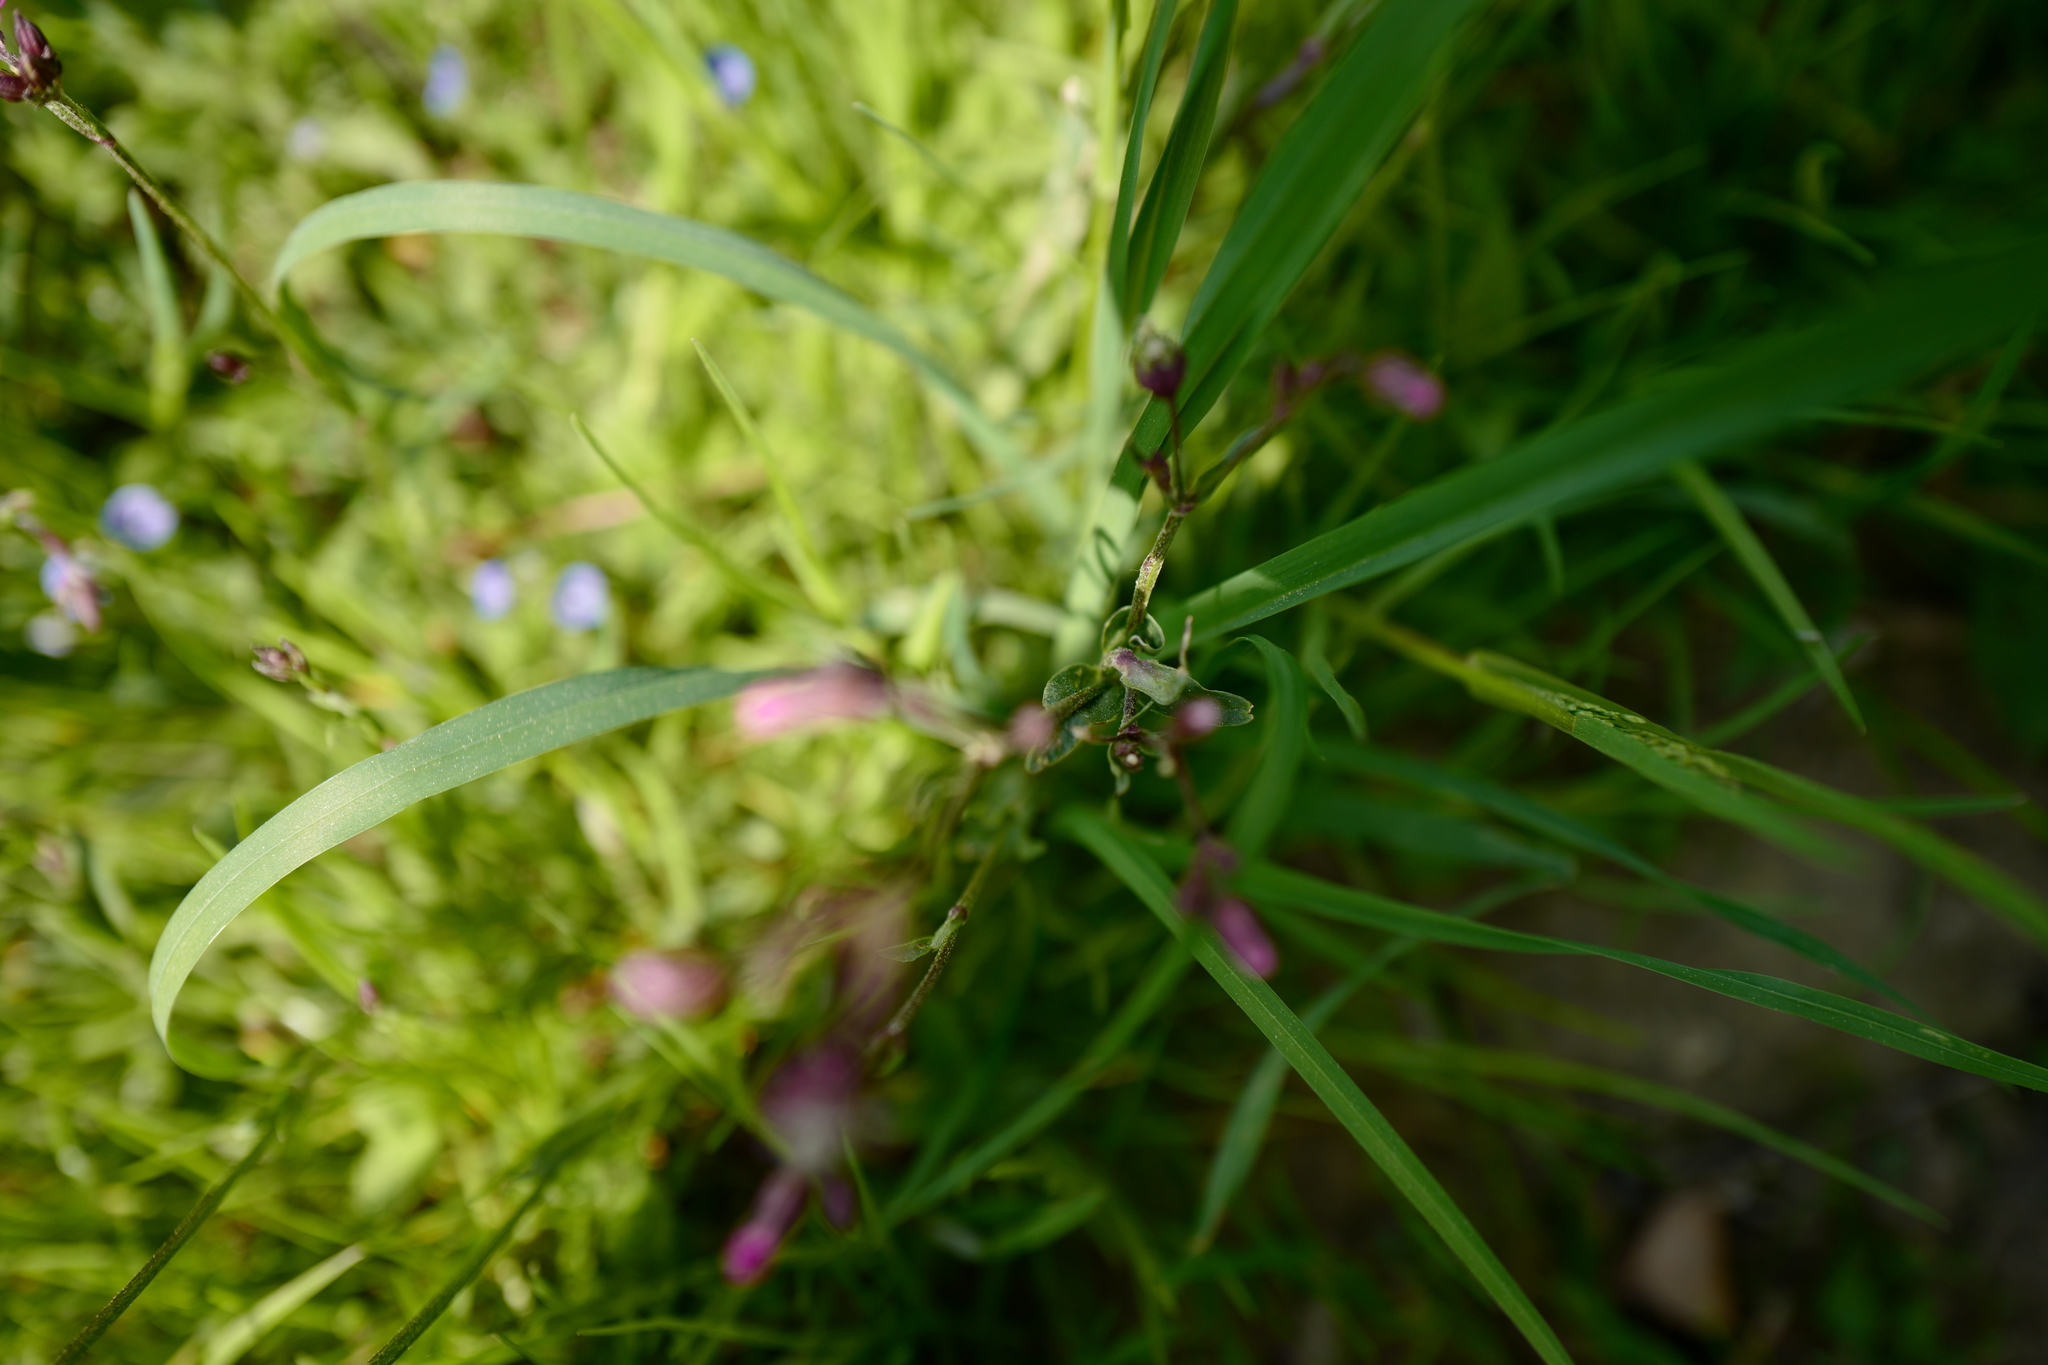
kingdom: Plantae
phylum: Tracheophyta
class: Magnoliopsida
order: Caryophyllales
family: Caryophyllaceae
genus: Silene
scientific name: Silene flos-cuculi
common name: Ragged-robin
